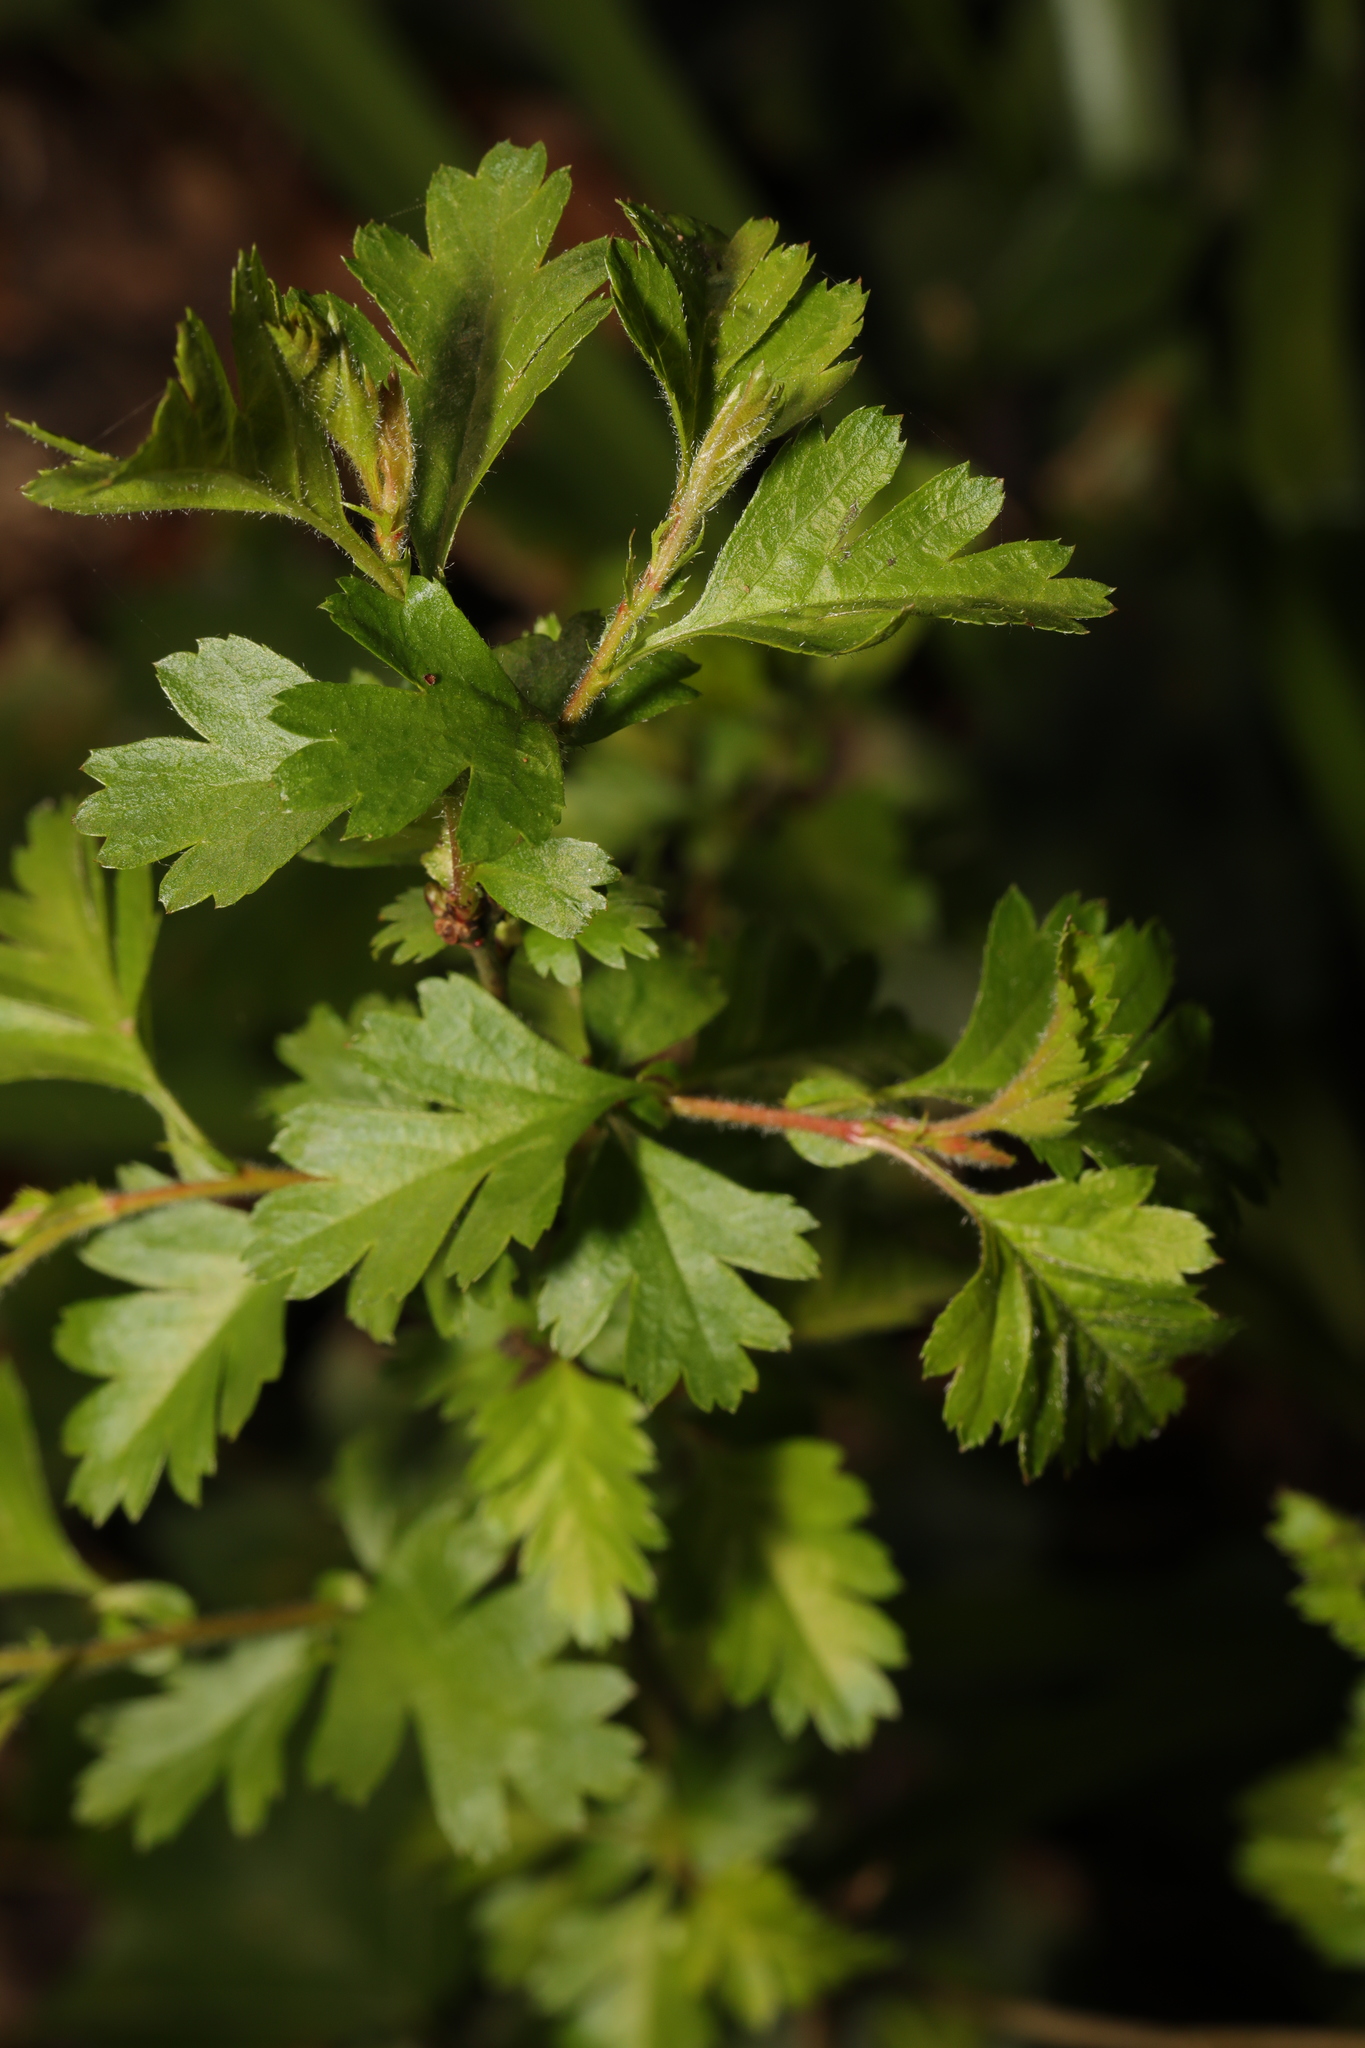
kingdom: Plantae
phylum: Tracheophyta
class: Magnoliopsida
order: Rosales
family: Rosaceae
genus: Crataegus
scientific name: Crataegus monogyna
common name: Hawthorn
